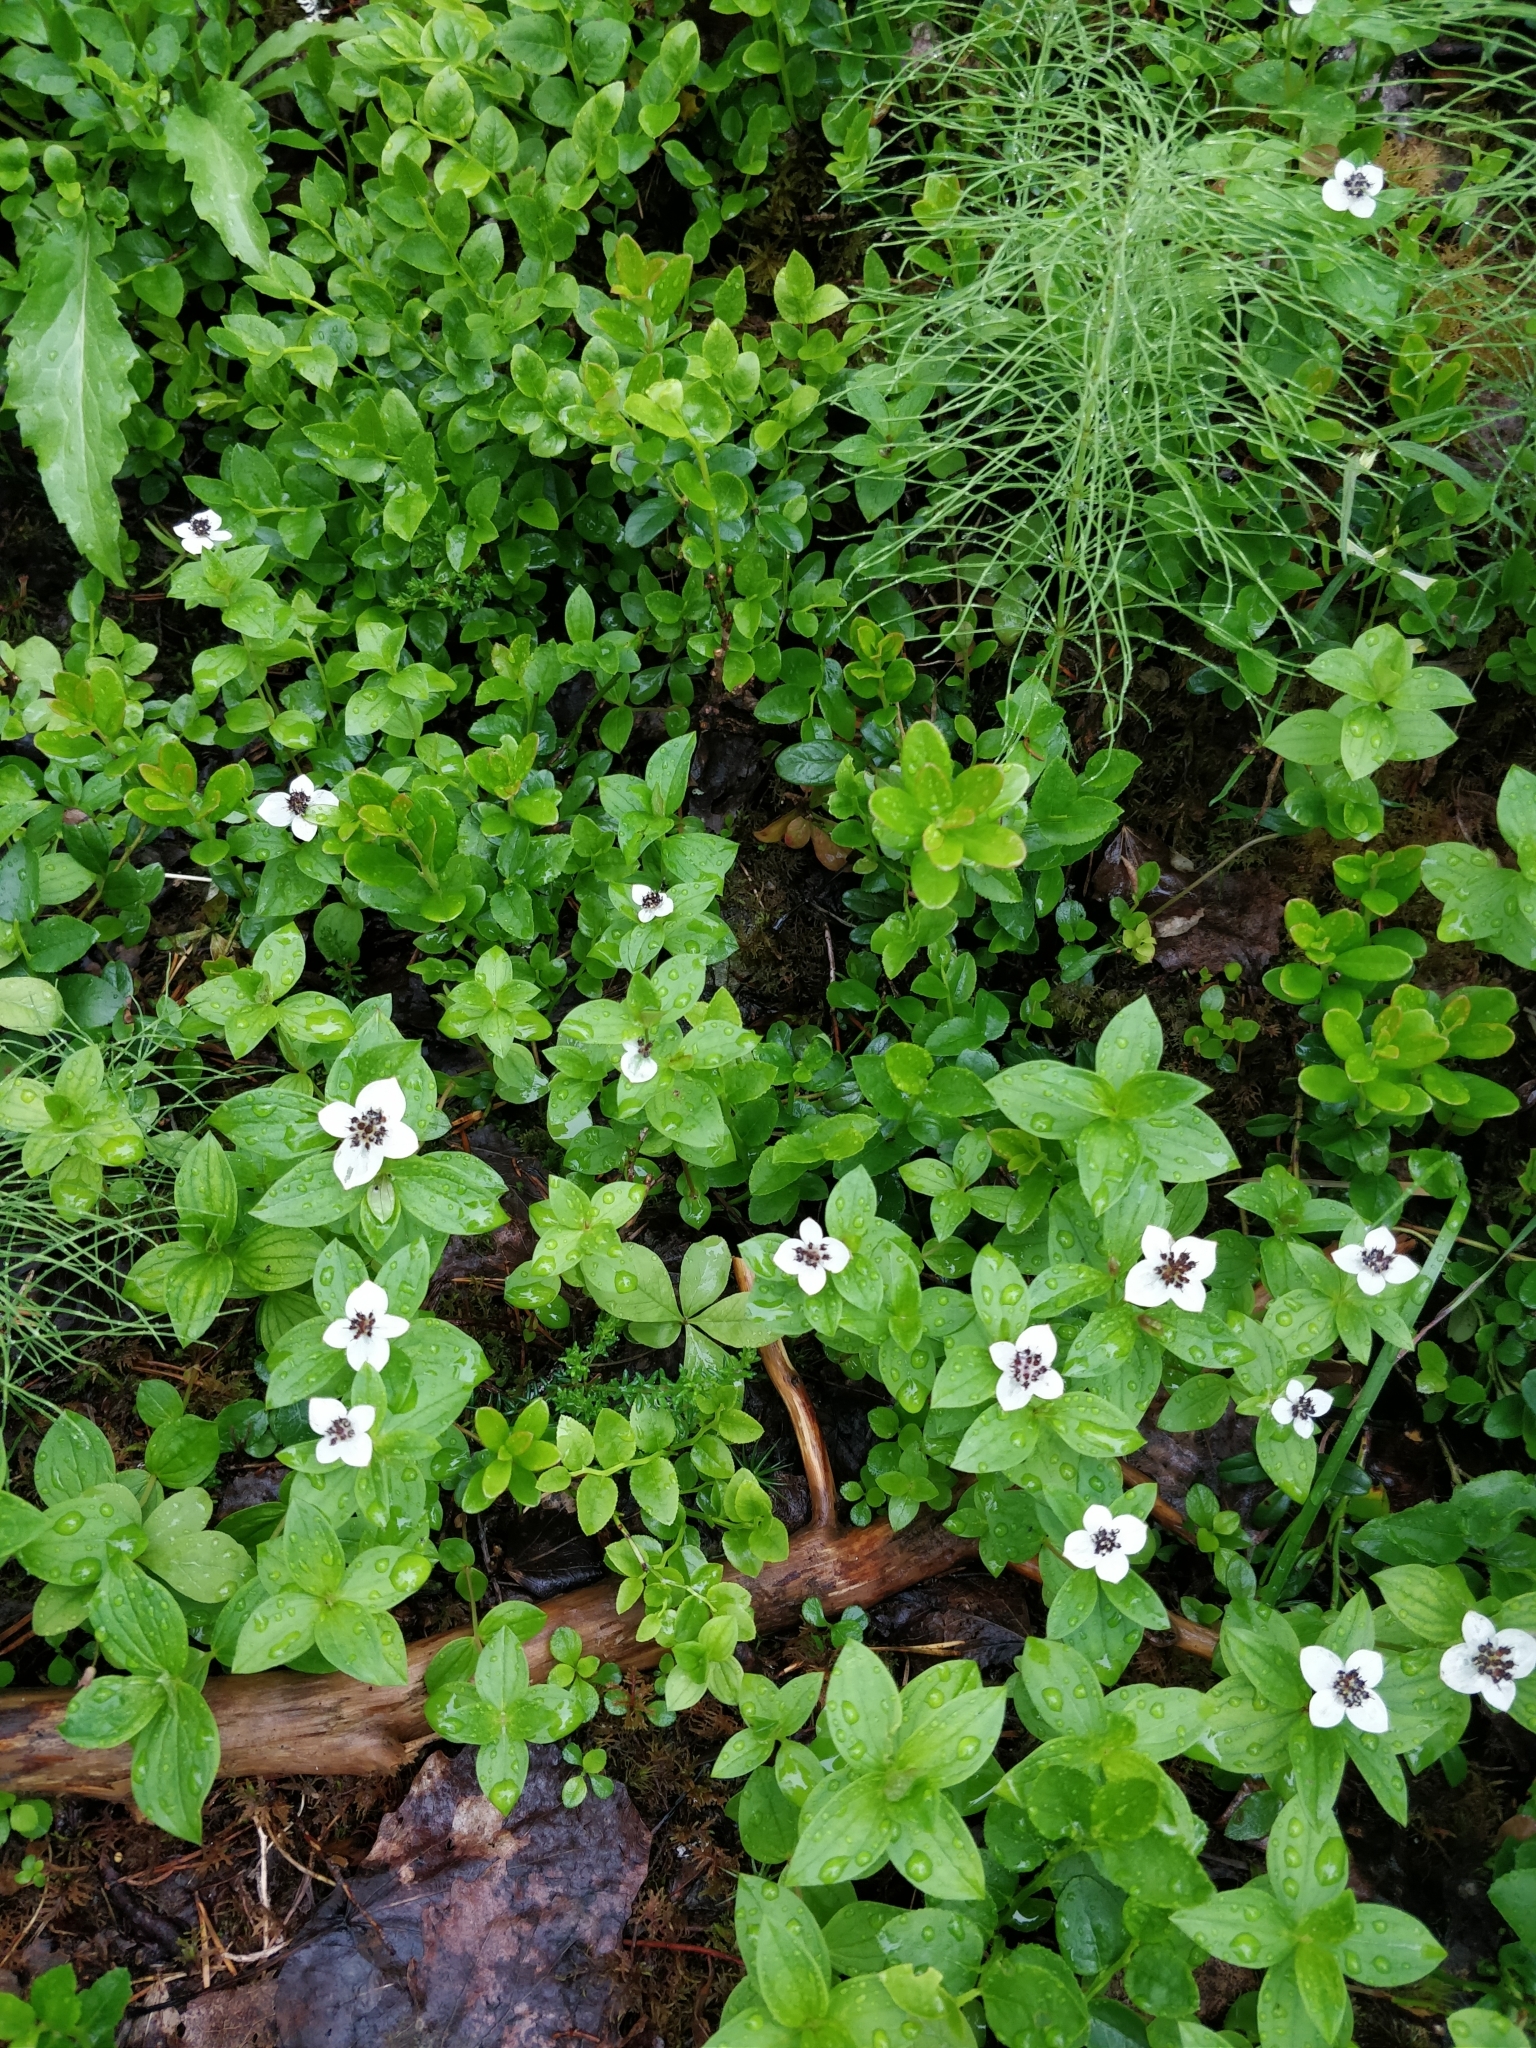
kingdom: Plantae
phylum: Tracheophyta
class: Magnoliopsida
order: Cornales
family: Cornaceae
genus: Cornus
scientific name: Cornus suecica
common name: Dwarf cornel
